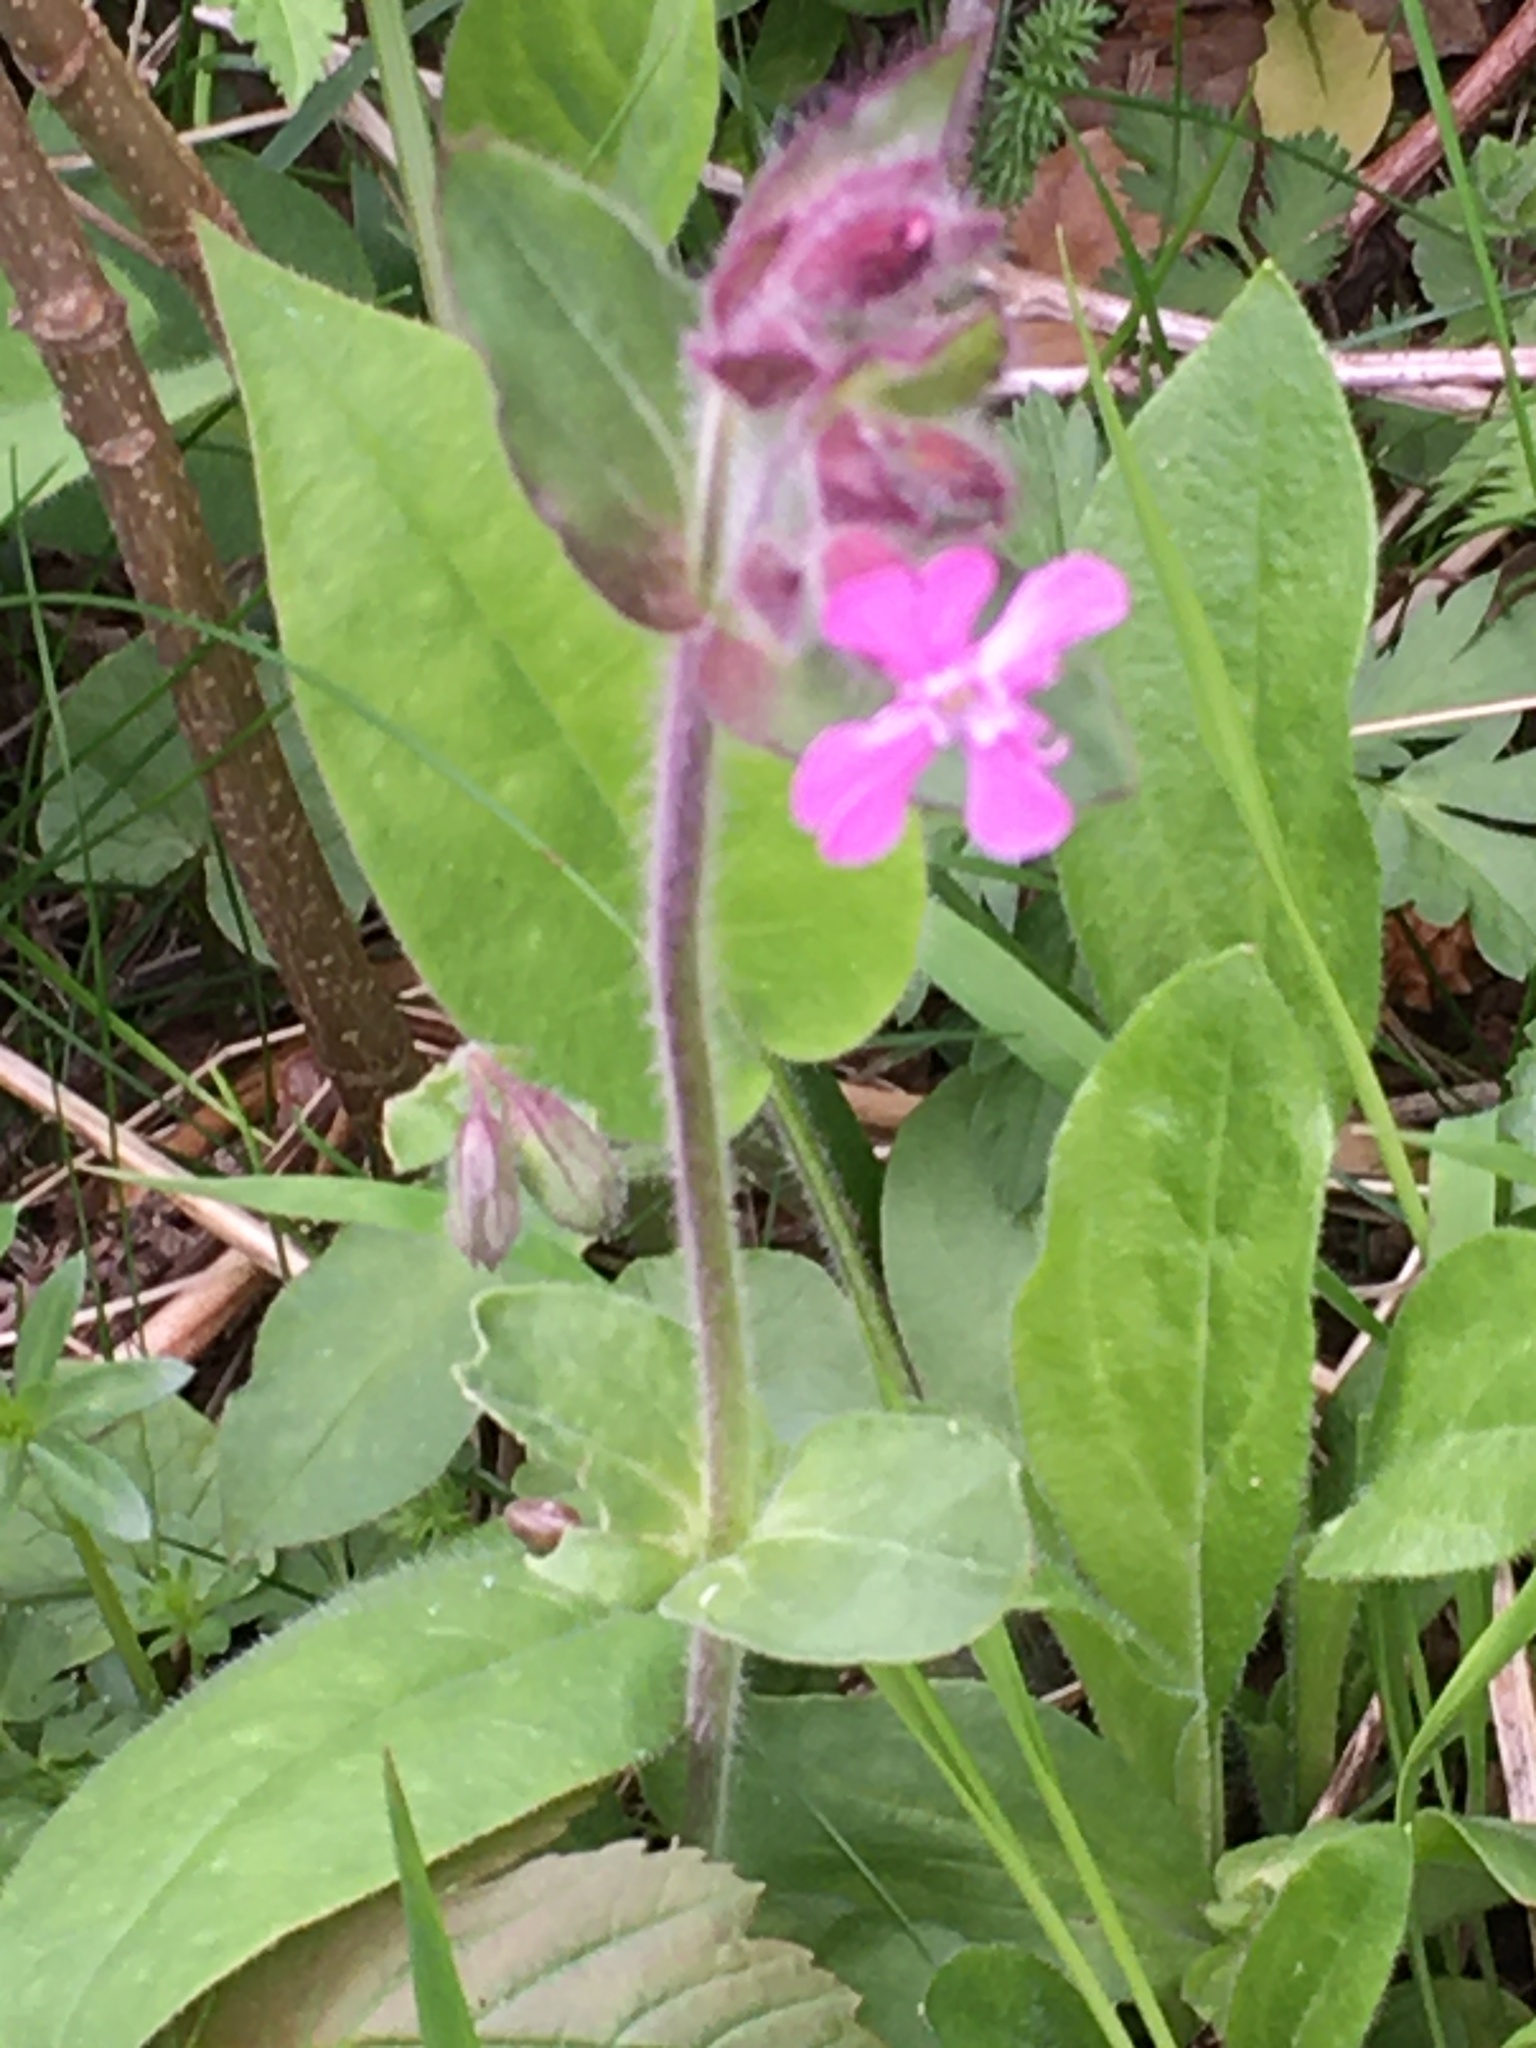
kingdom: Plantae
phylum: Tracheophyta
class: Magnoliopsida
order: Caryophyllales
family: Caryophyllaceae
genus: Silene
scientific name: Silene dioica
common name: Red campion
